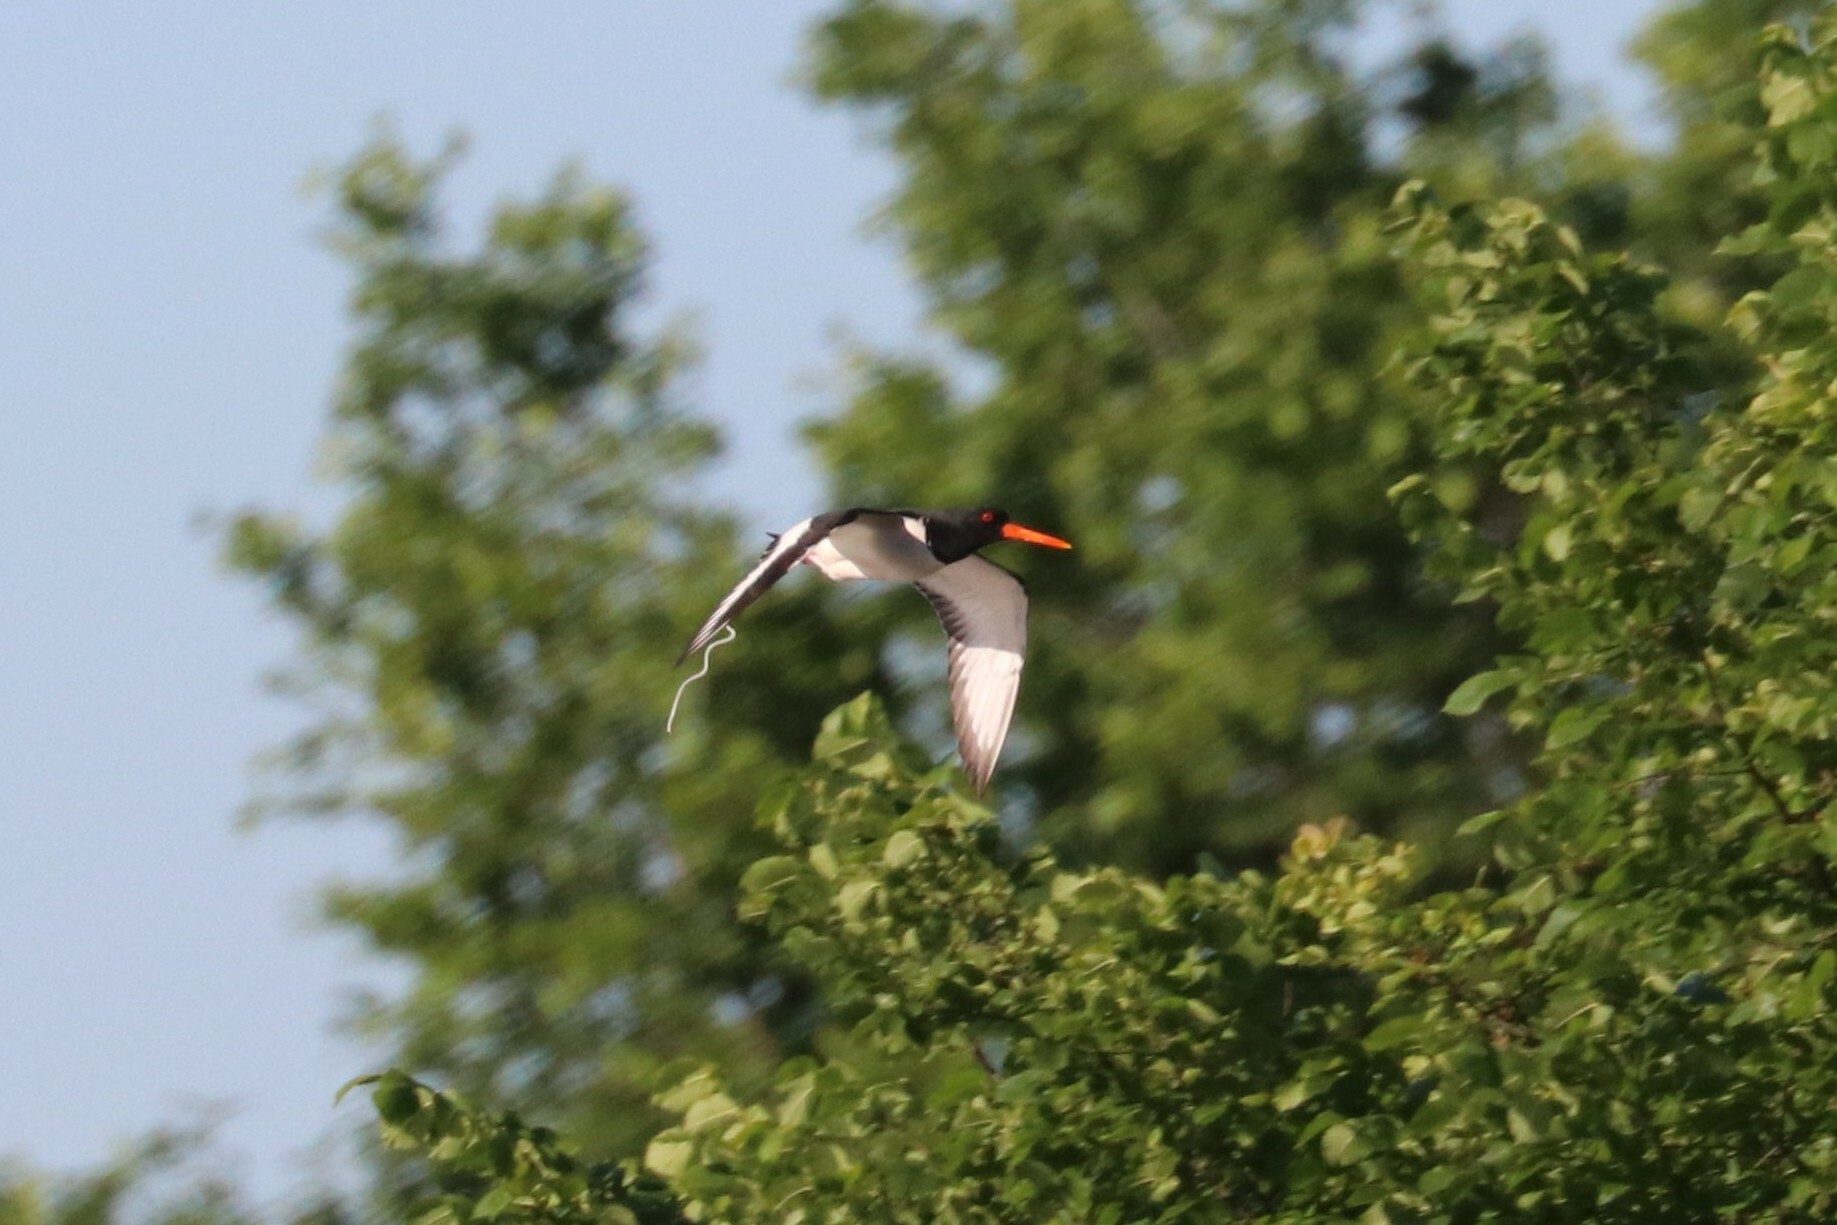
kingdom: Animalia
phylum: Chordata
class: Aves
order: Charadriiformes
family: Haematopodidae
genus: Haematopus
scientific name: Haematopus ostralegus
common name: Eurasian oystercatcher
